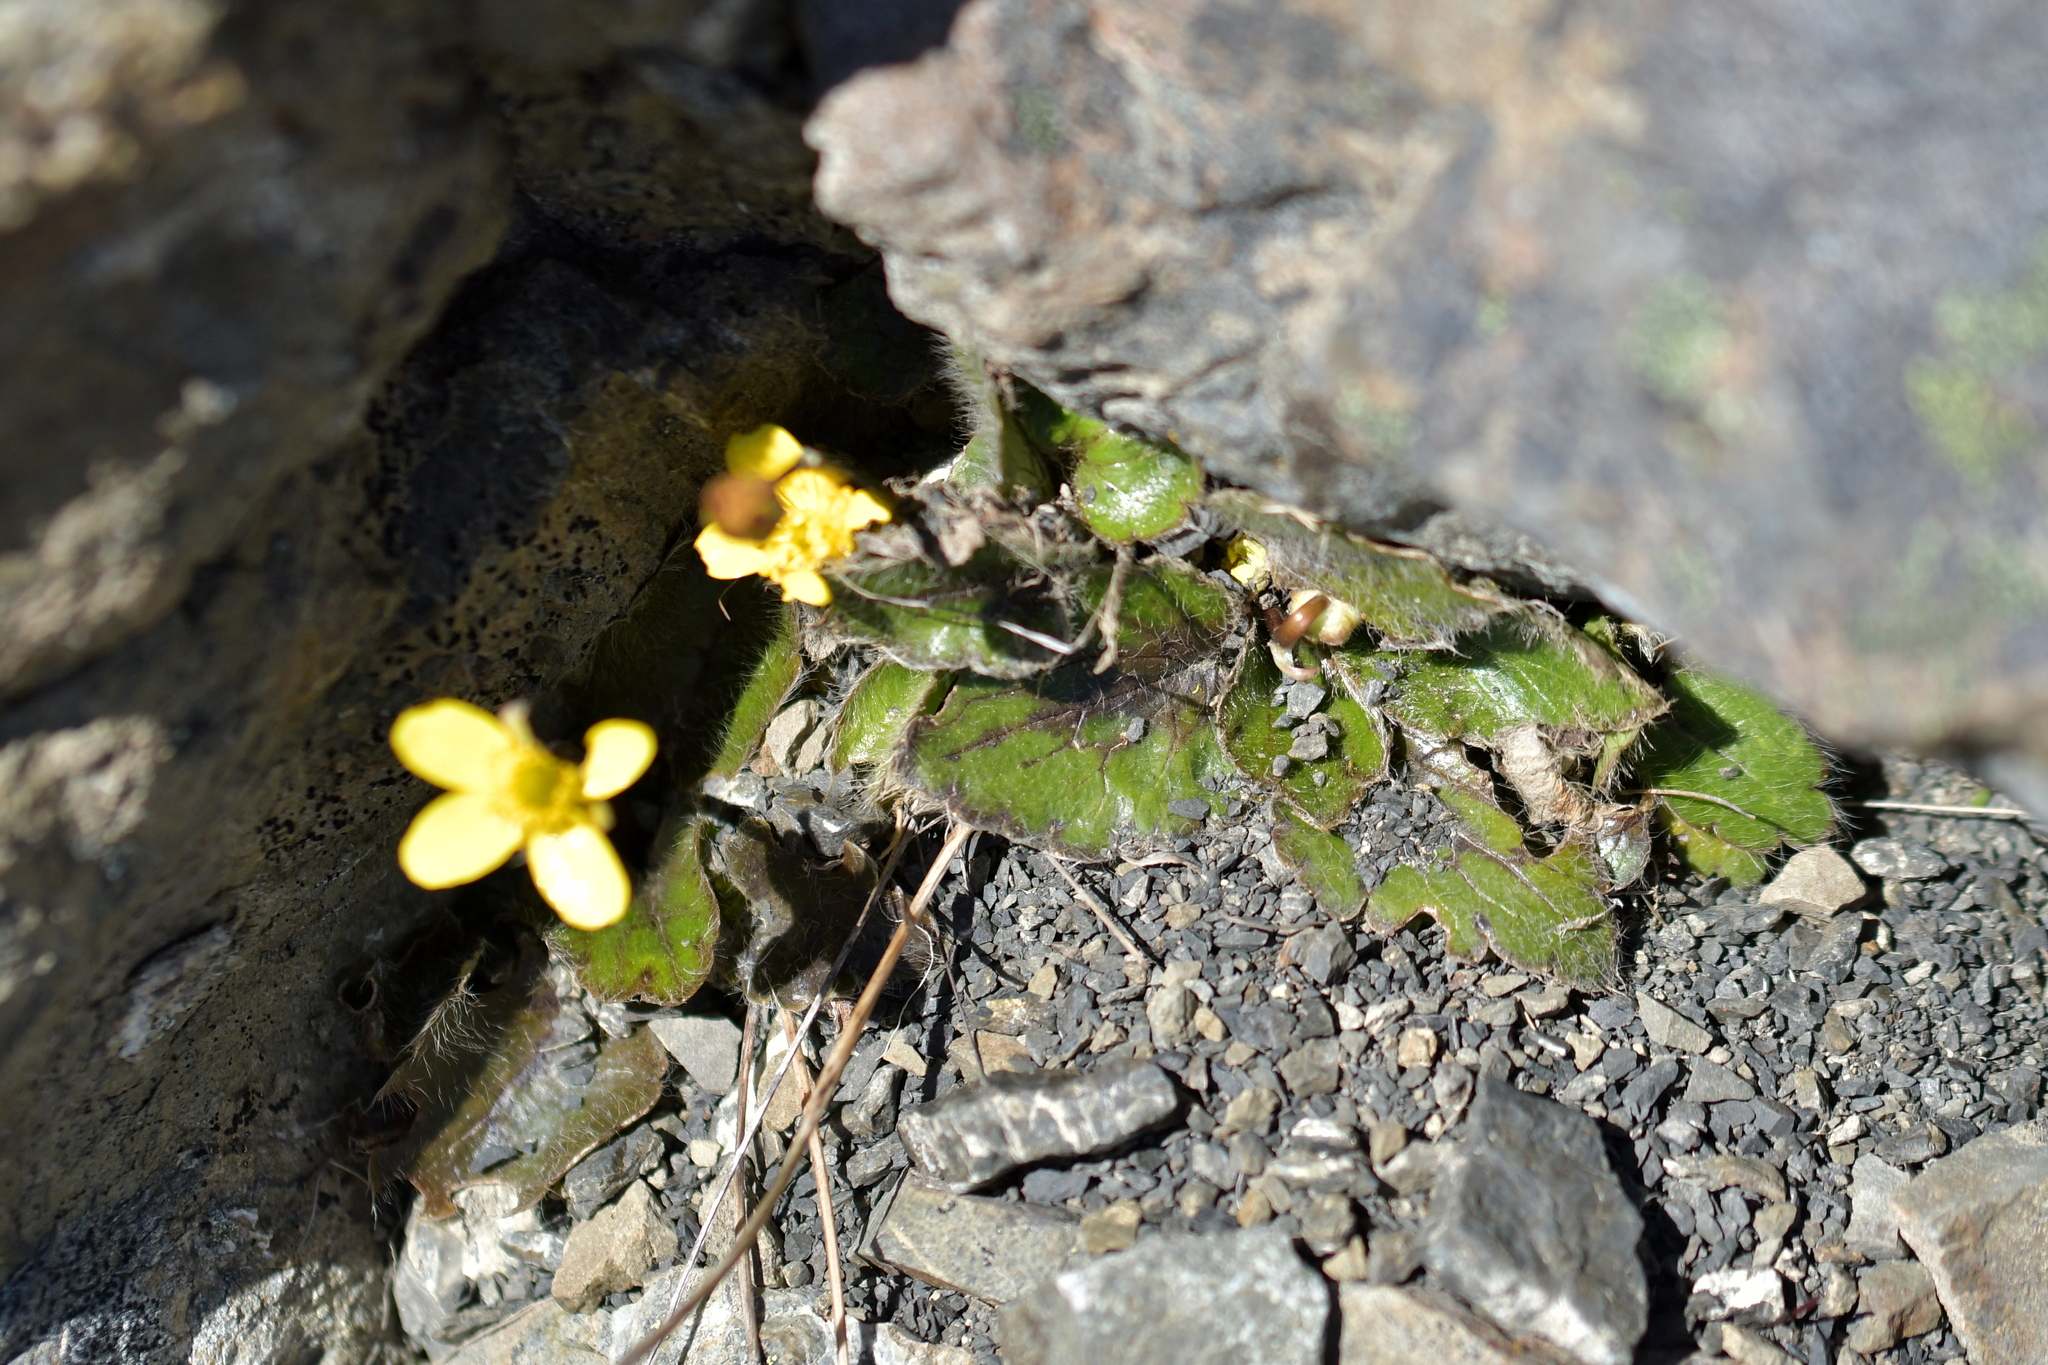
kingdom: Plantae
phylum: Tracheophyta
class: Magnoliopsida
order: Ranunculales
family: Ranunculaceae
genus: Ranunculus
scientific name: Ranunculus insignis
